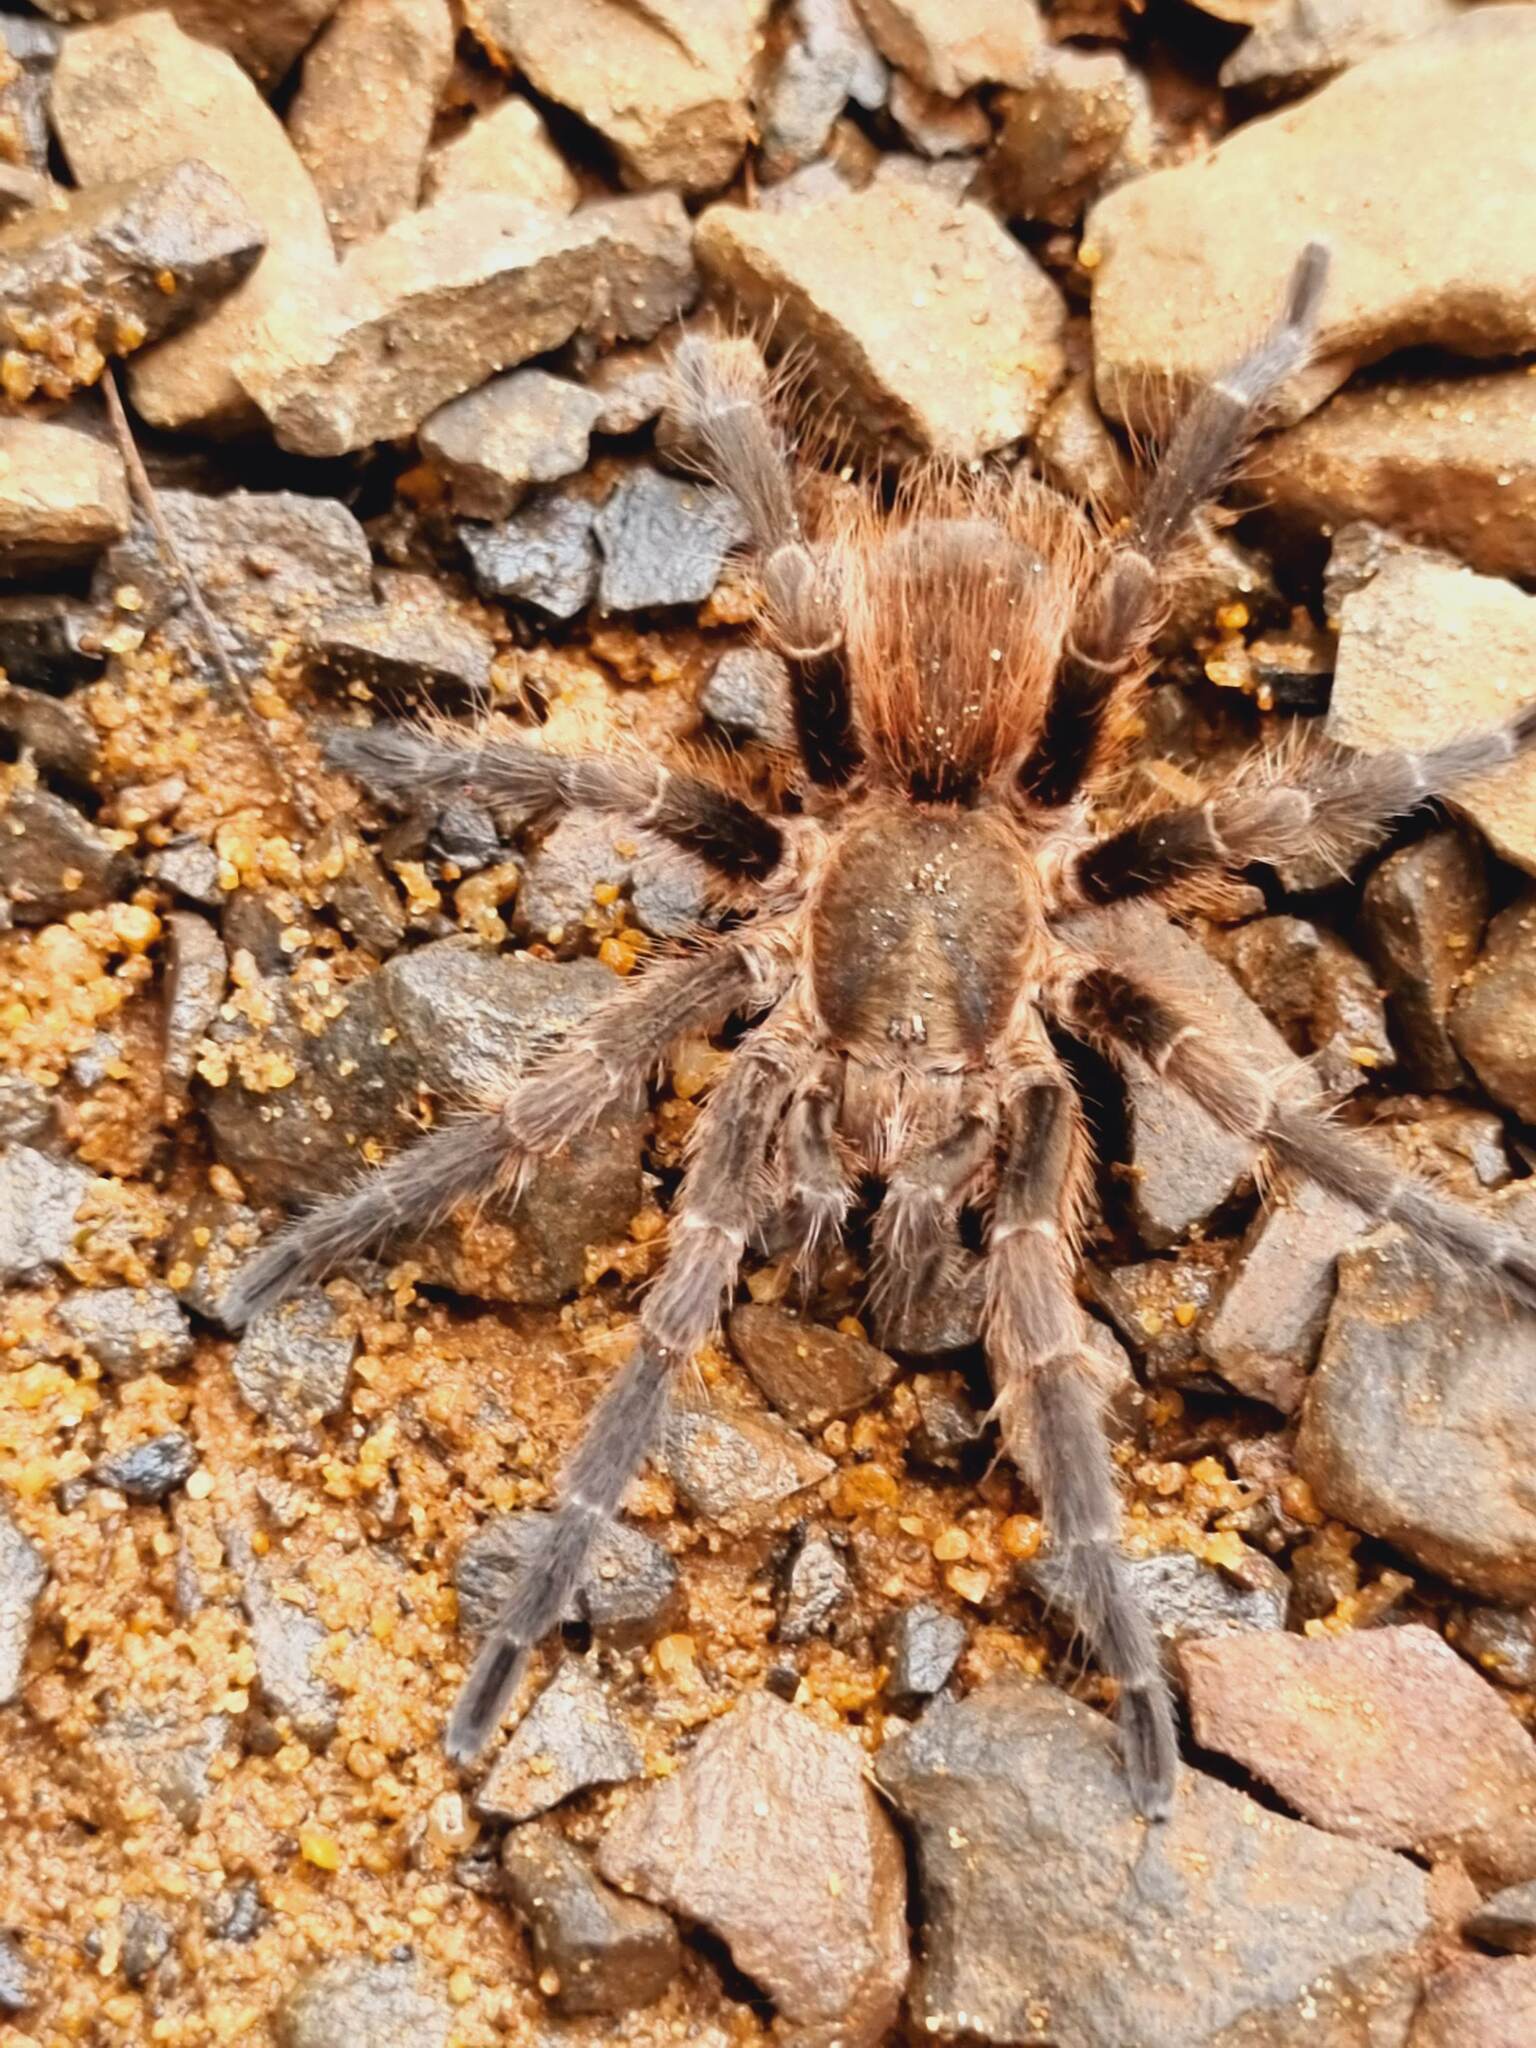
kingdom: Animalia
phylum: Arthropoda
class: Arachnida
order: Araneae
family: Theraphosidae
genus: Pterinopelma
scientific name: Pterinopelma longisternale
